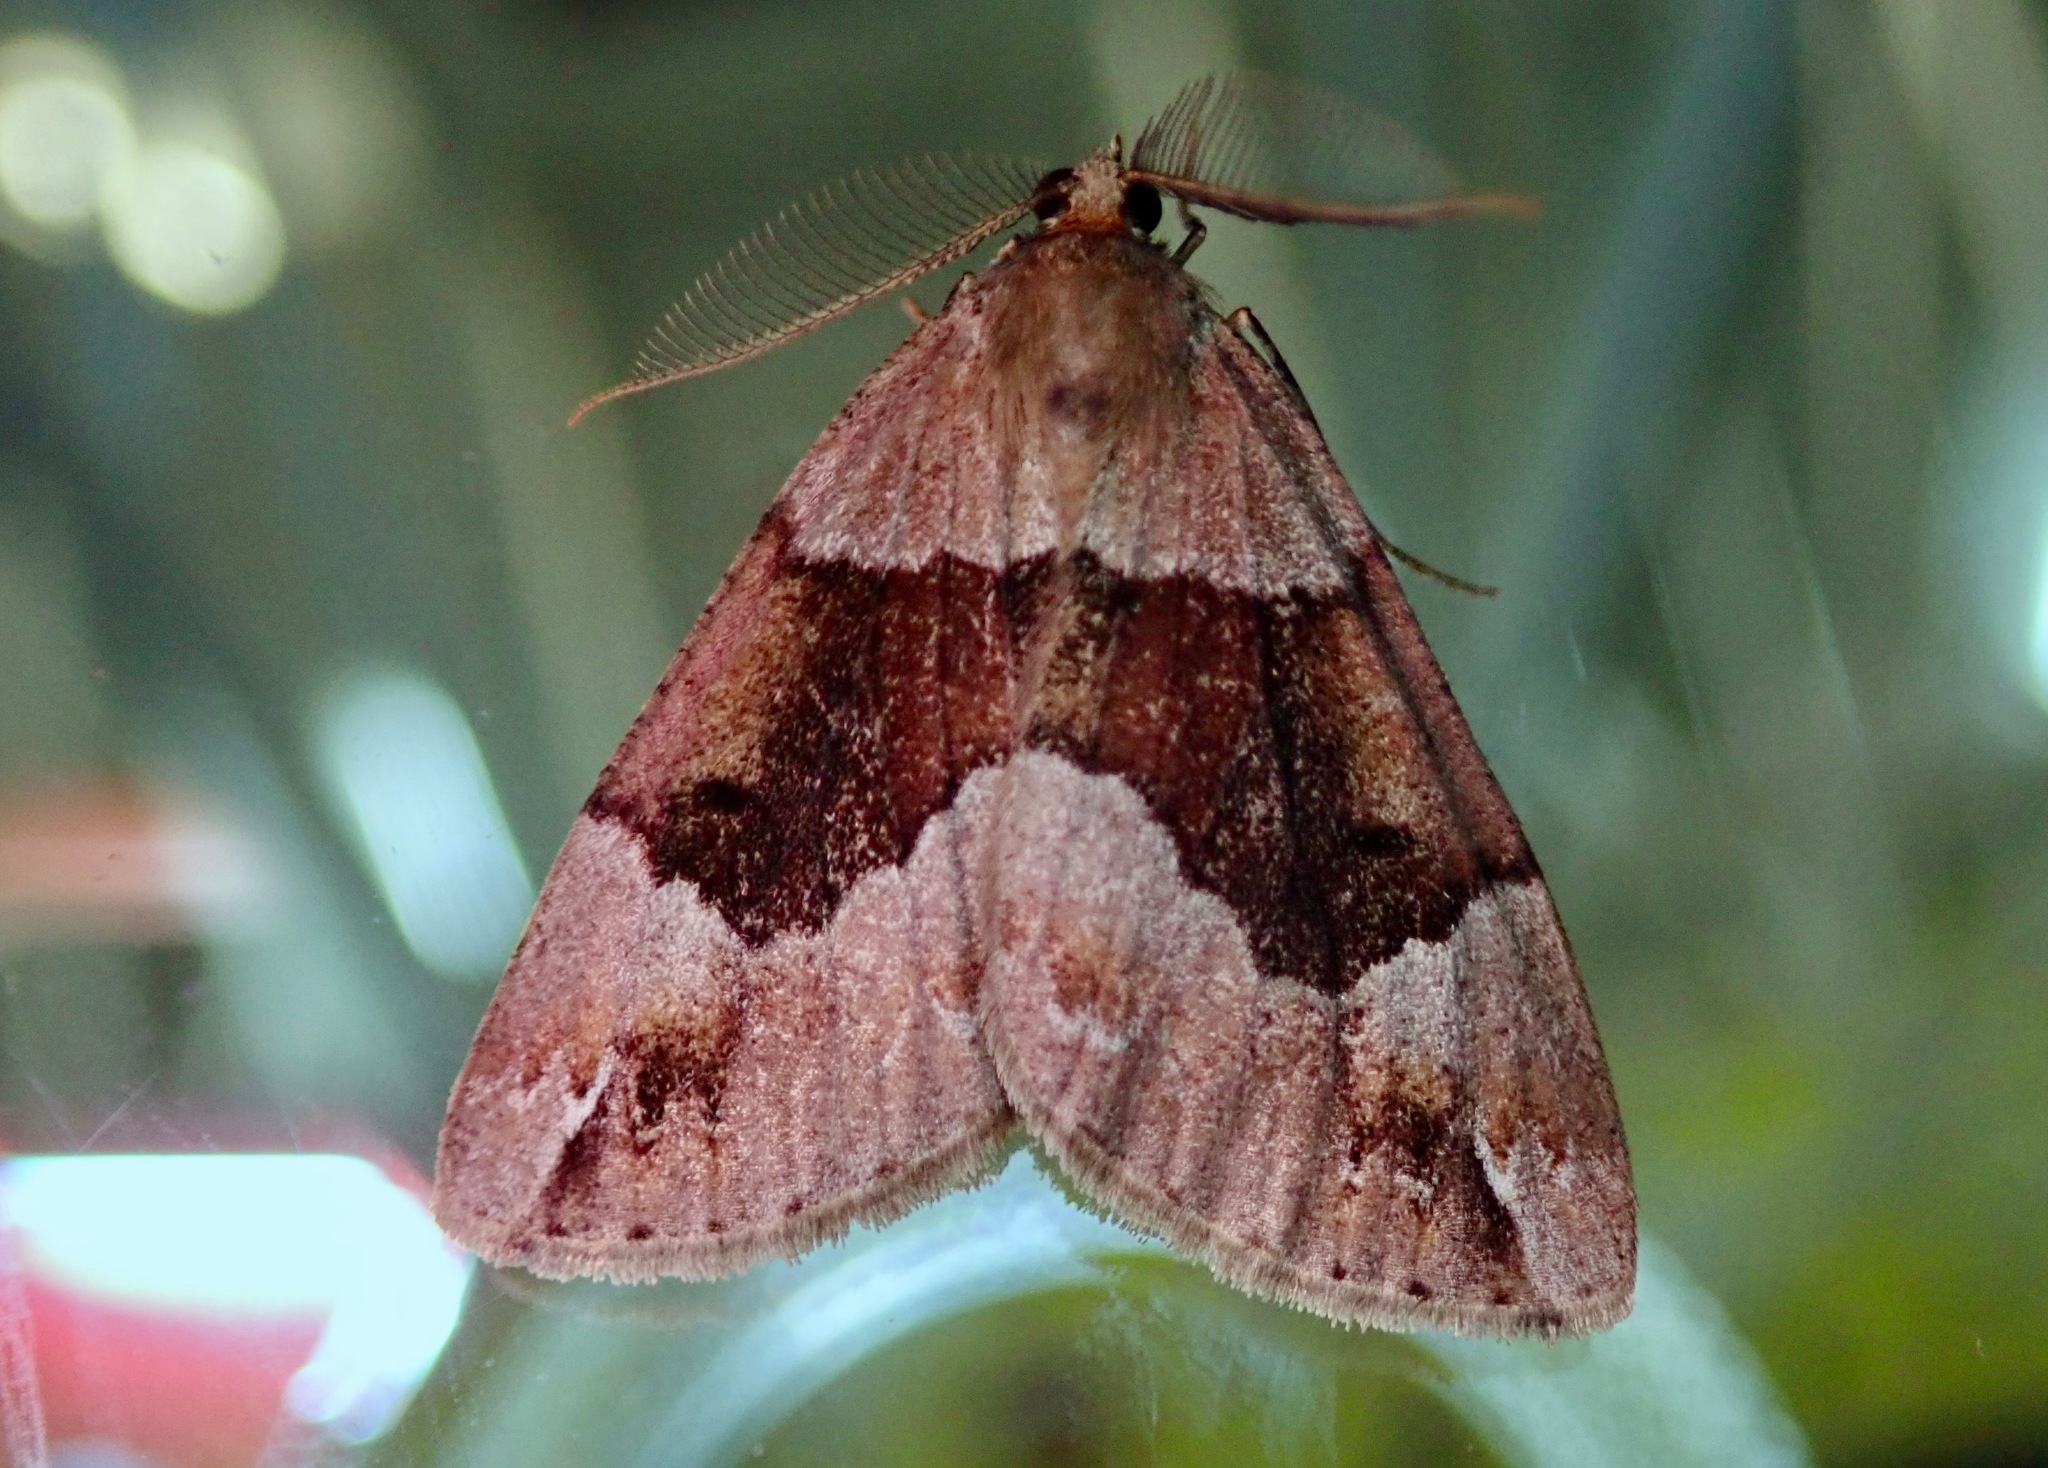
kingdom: Animalia
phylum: Arthropoda
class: Insecta
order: Lepidoptera
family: Geometridae
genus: Pseudocoremia
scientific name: Pseudocoremia productata
